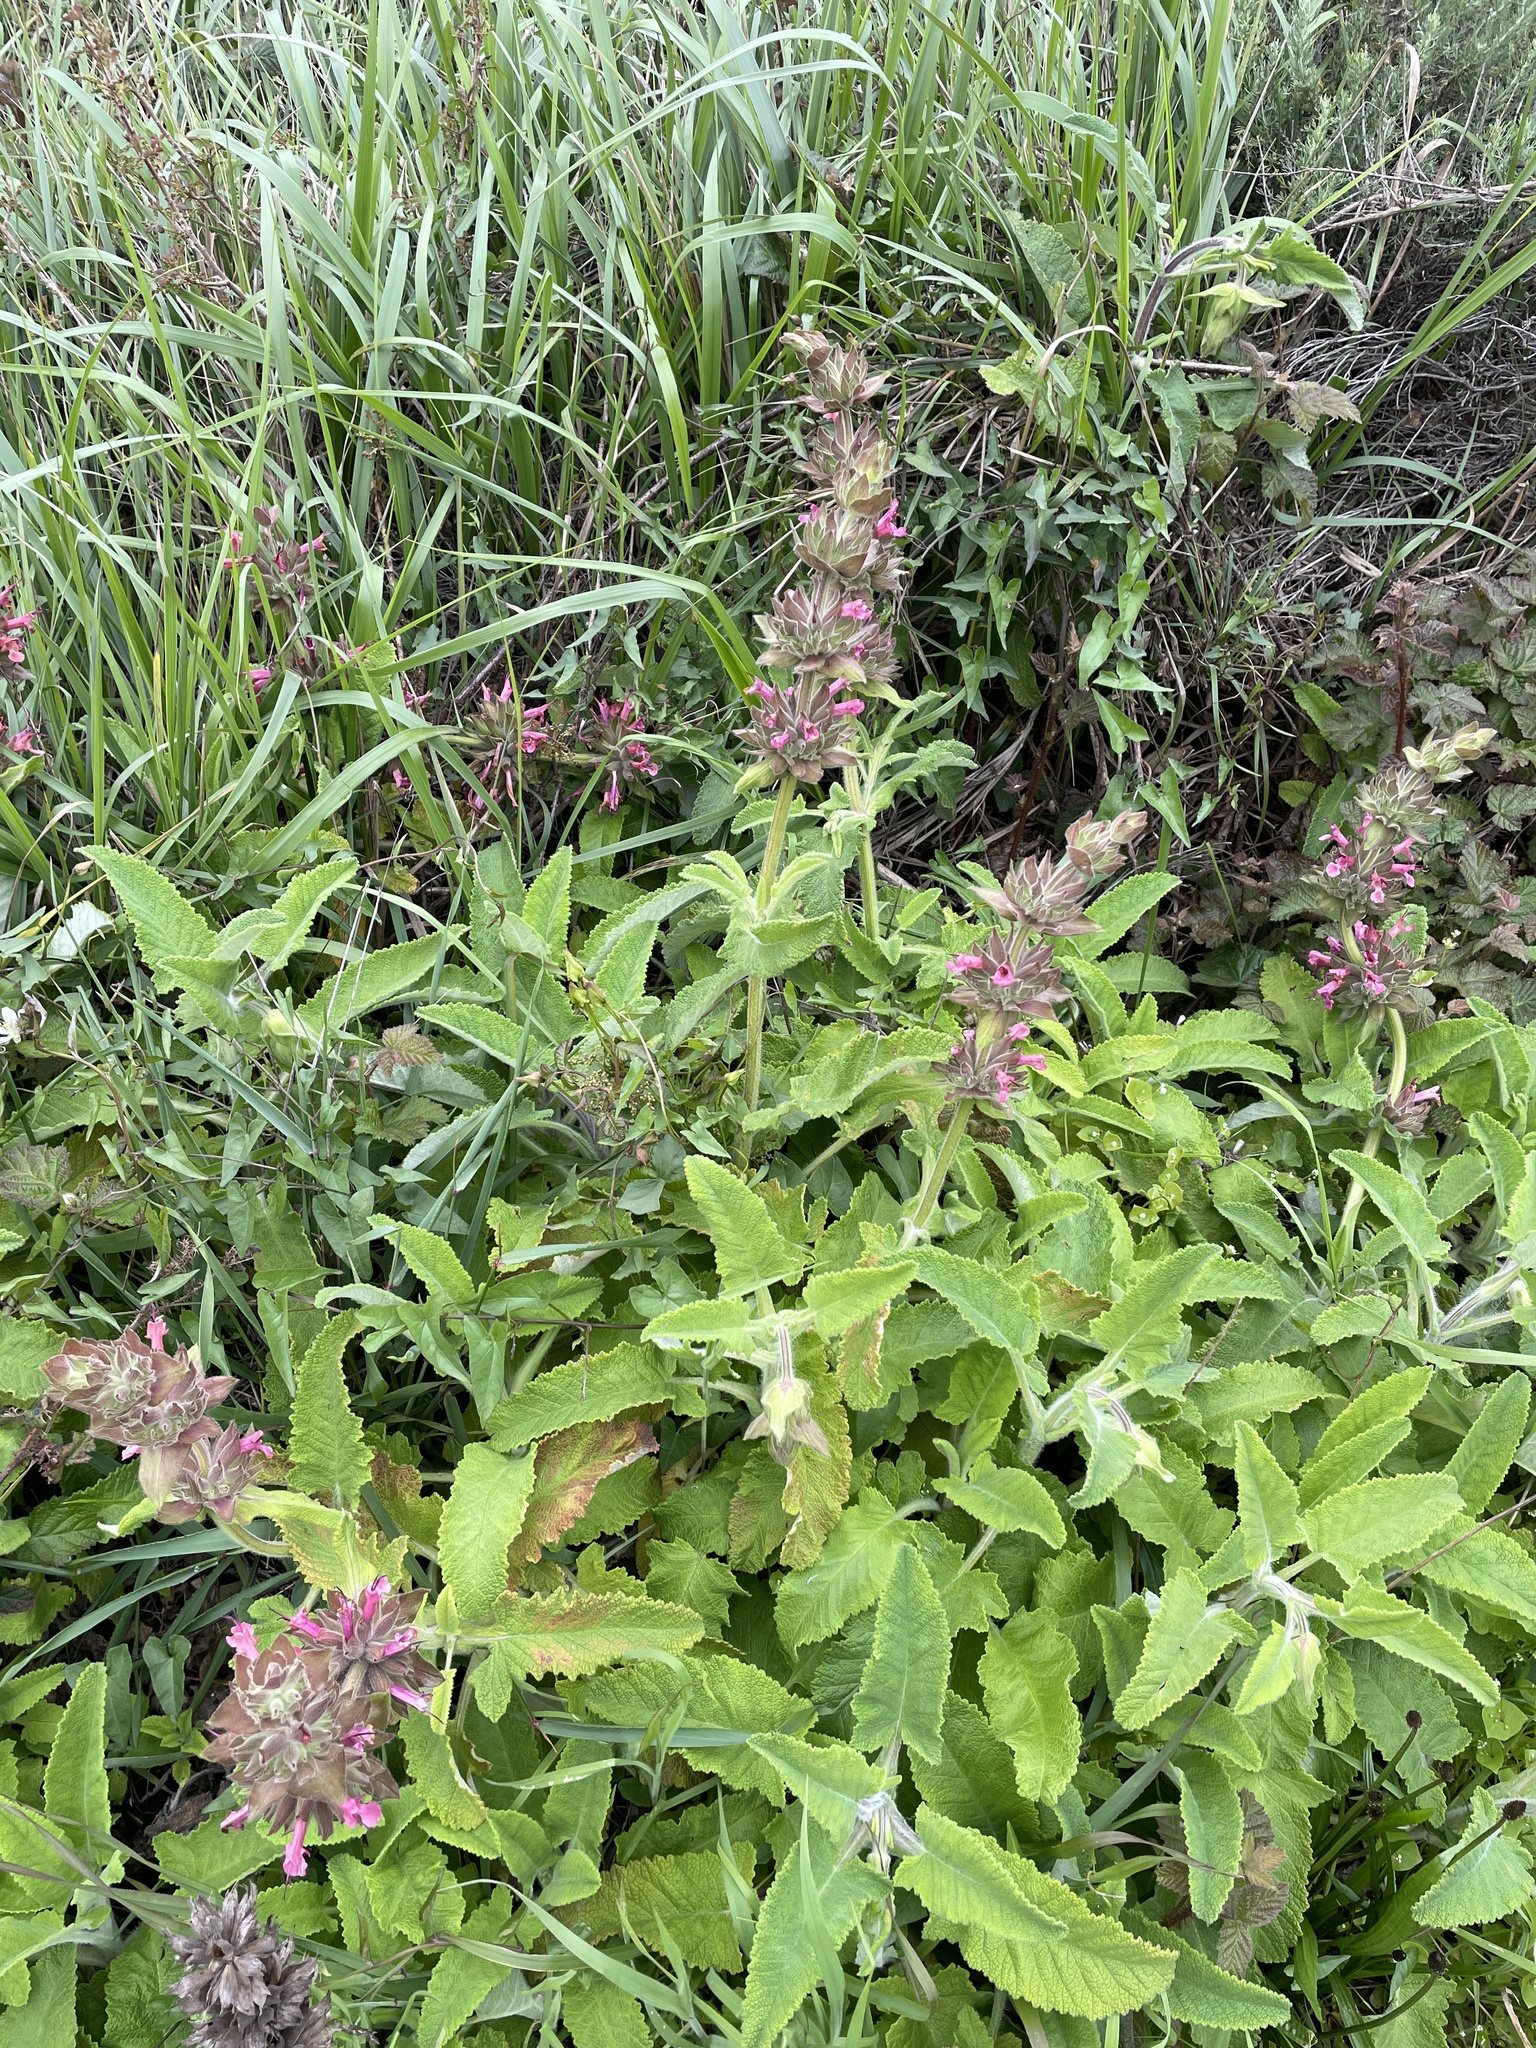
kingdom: Plantae
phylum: Tracheophyta
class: Magnoliopsida
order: Lamiales
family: Lamiaceae
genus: Salvia
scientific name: Salvia spathacea
